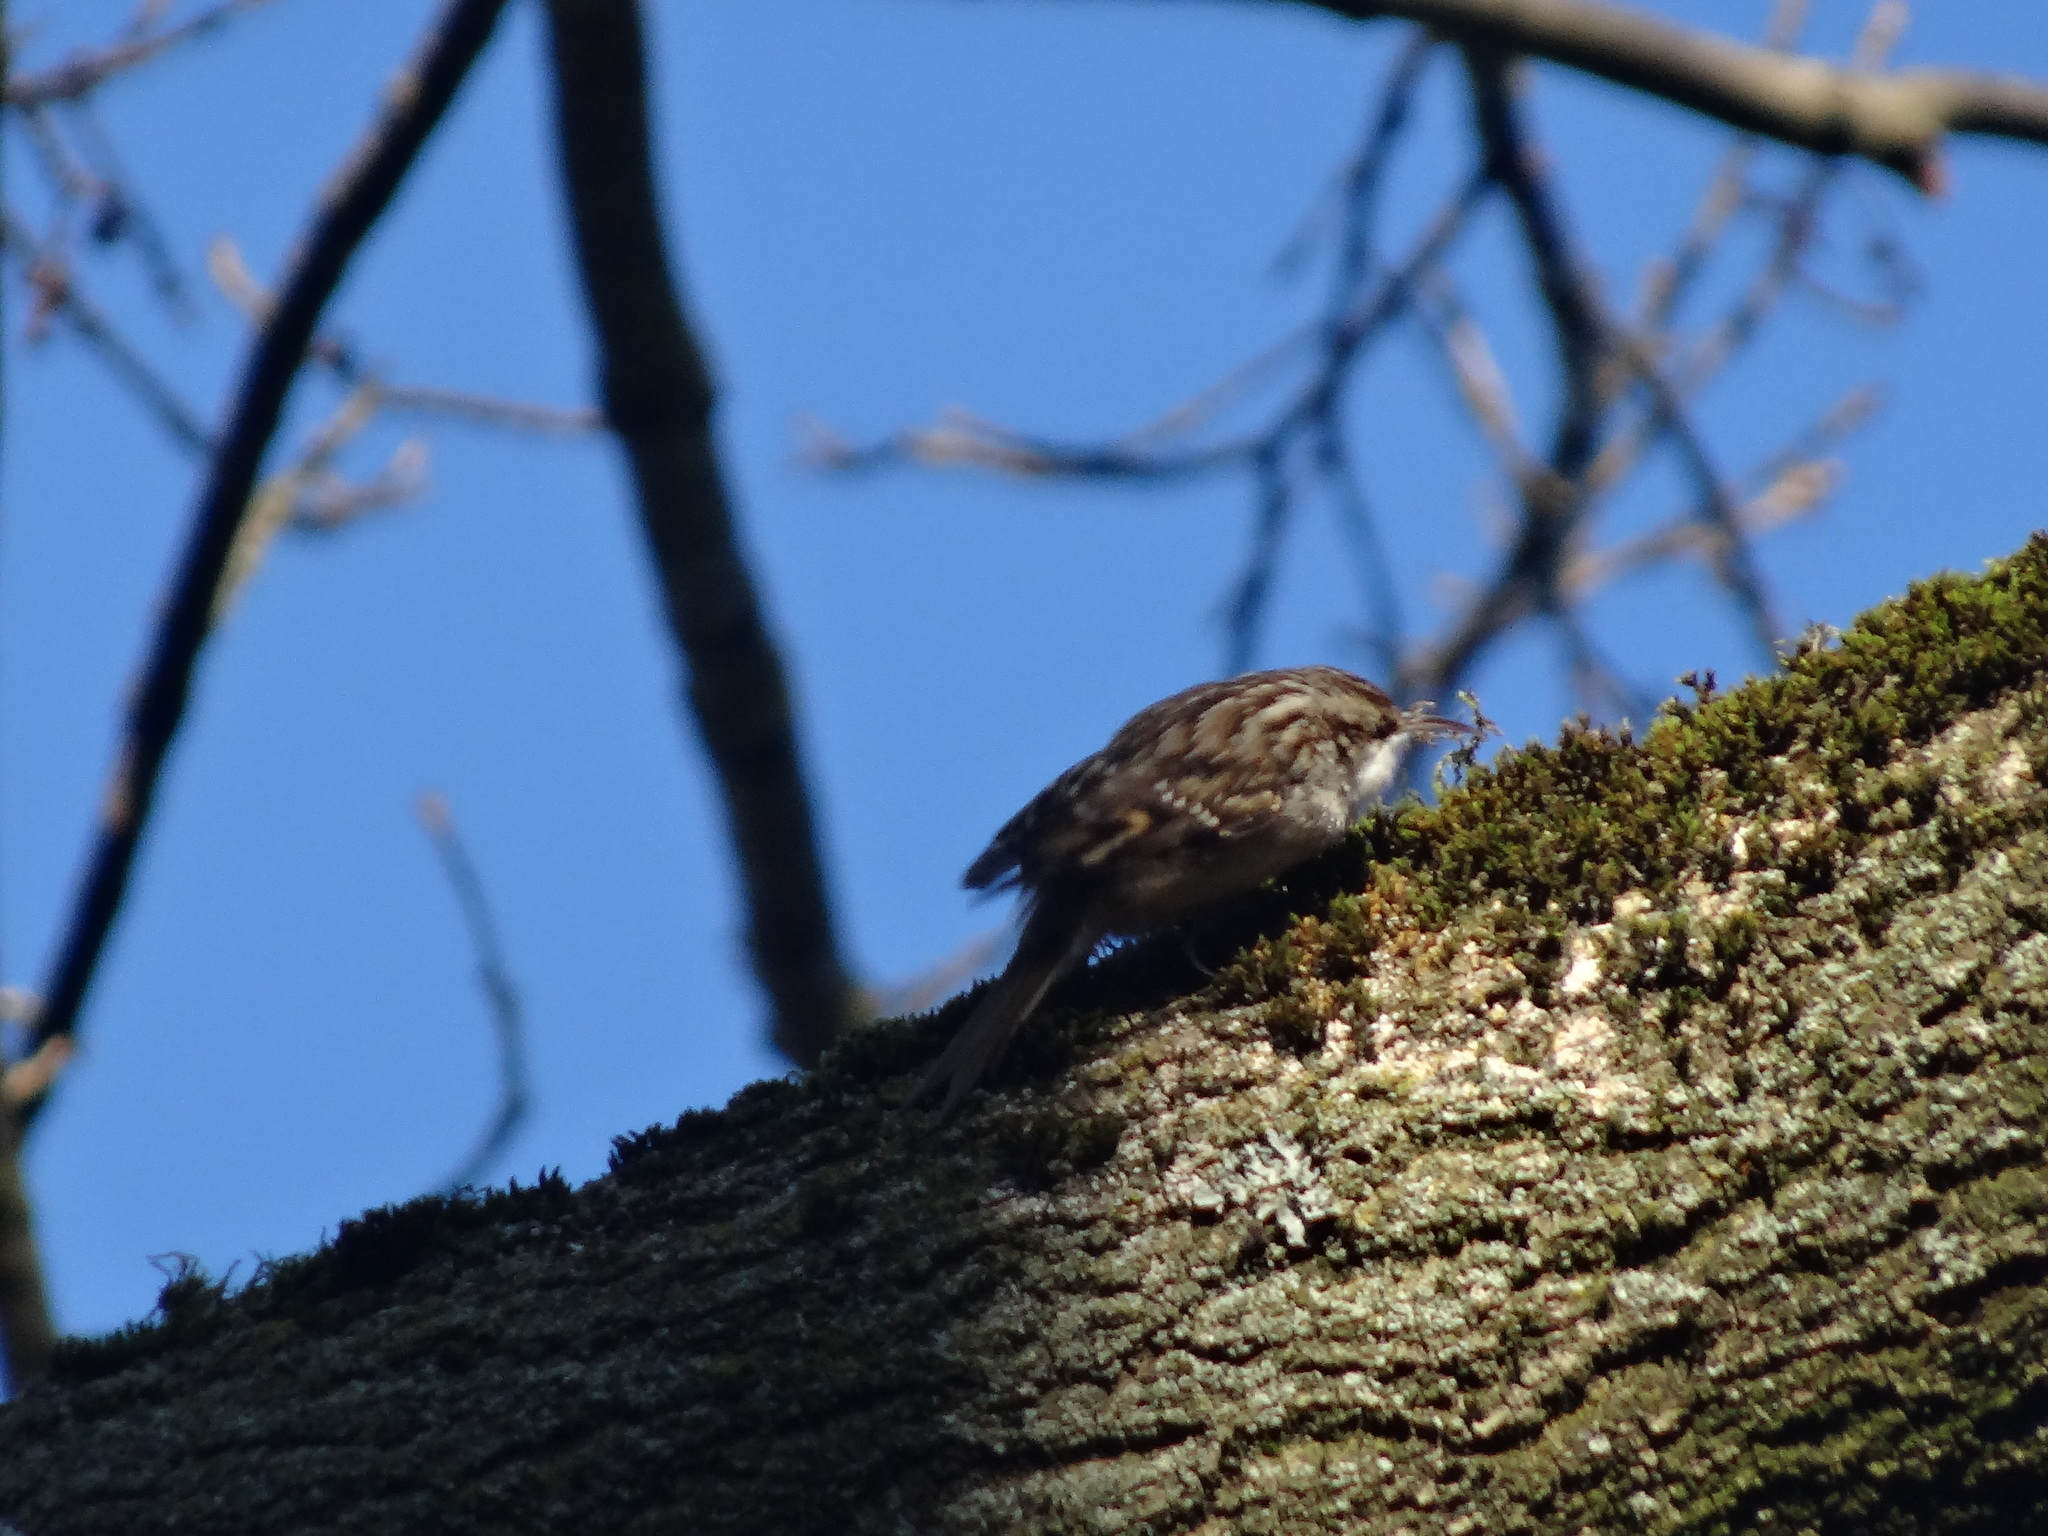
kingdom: Animalia
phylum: Chordata
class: Aves
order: Passeriformes
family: Certhiidae
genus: Certhia
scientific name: Certhia brachydactyla
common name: Short-toed treecreeper
